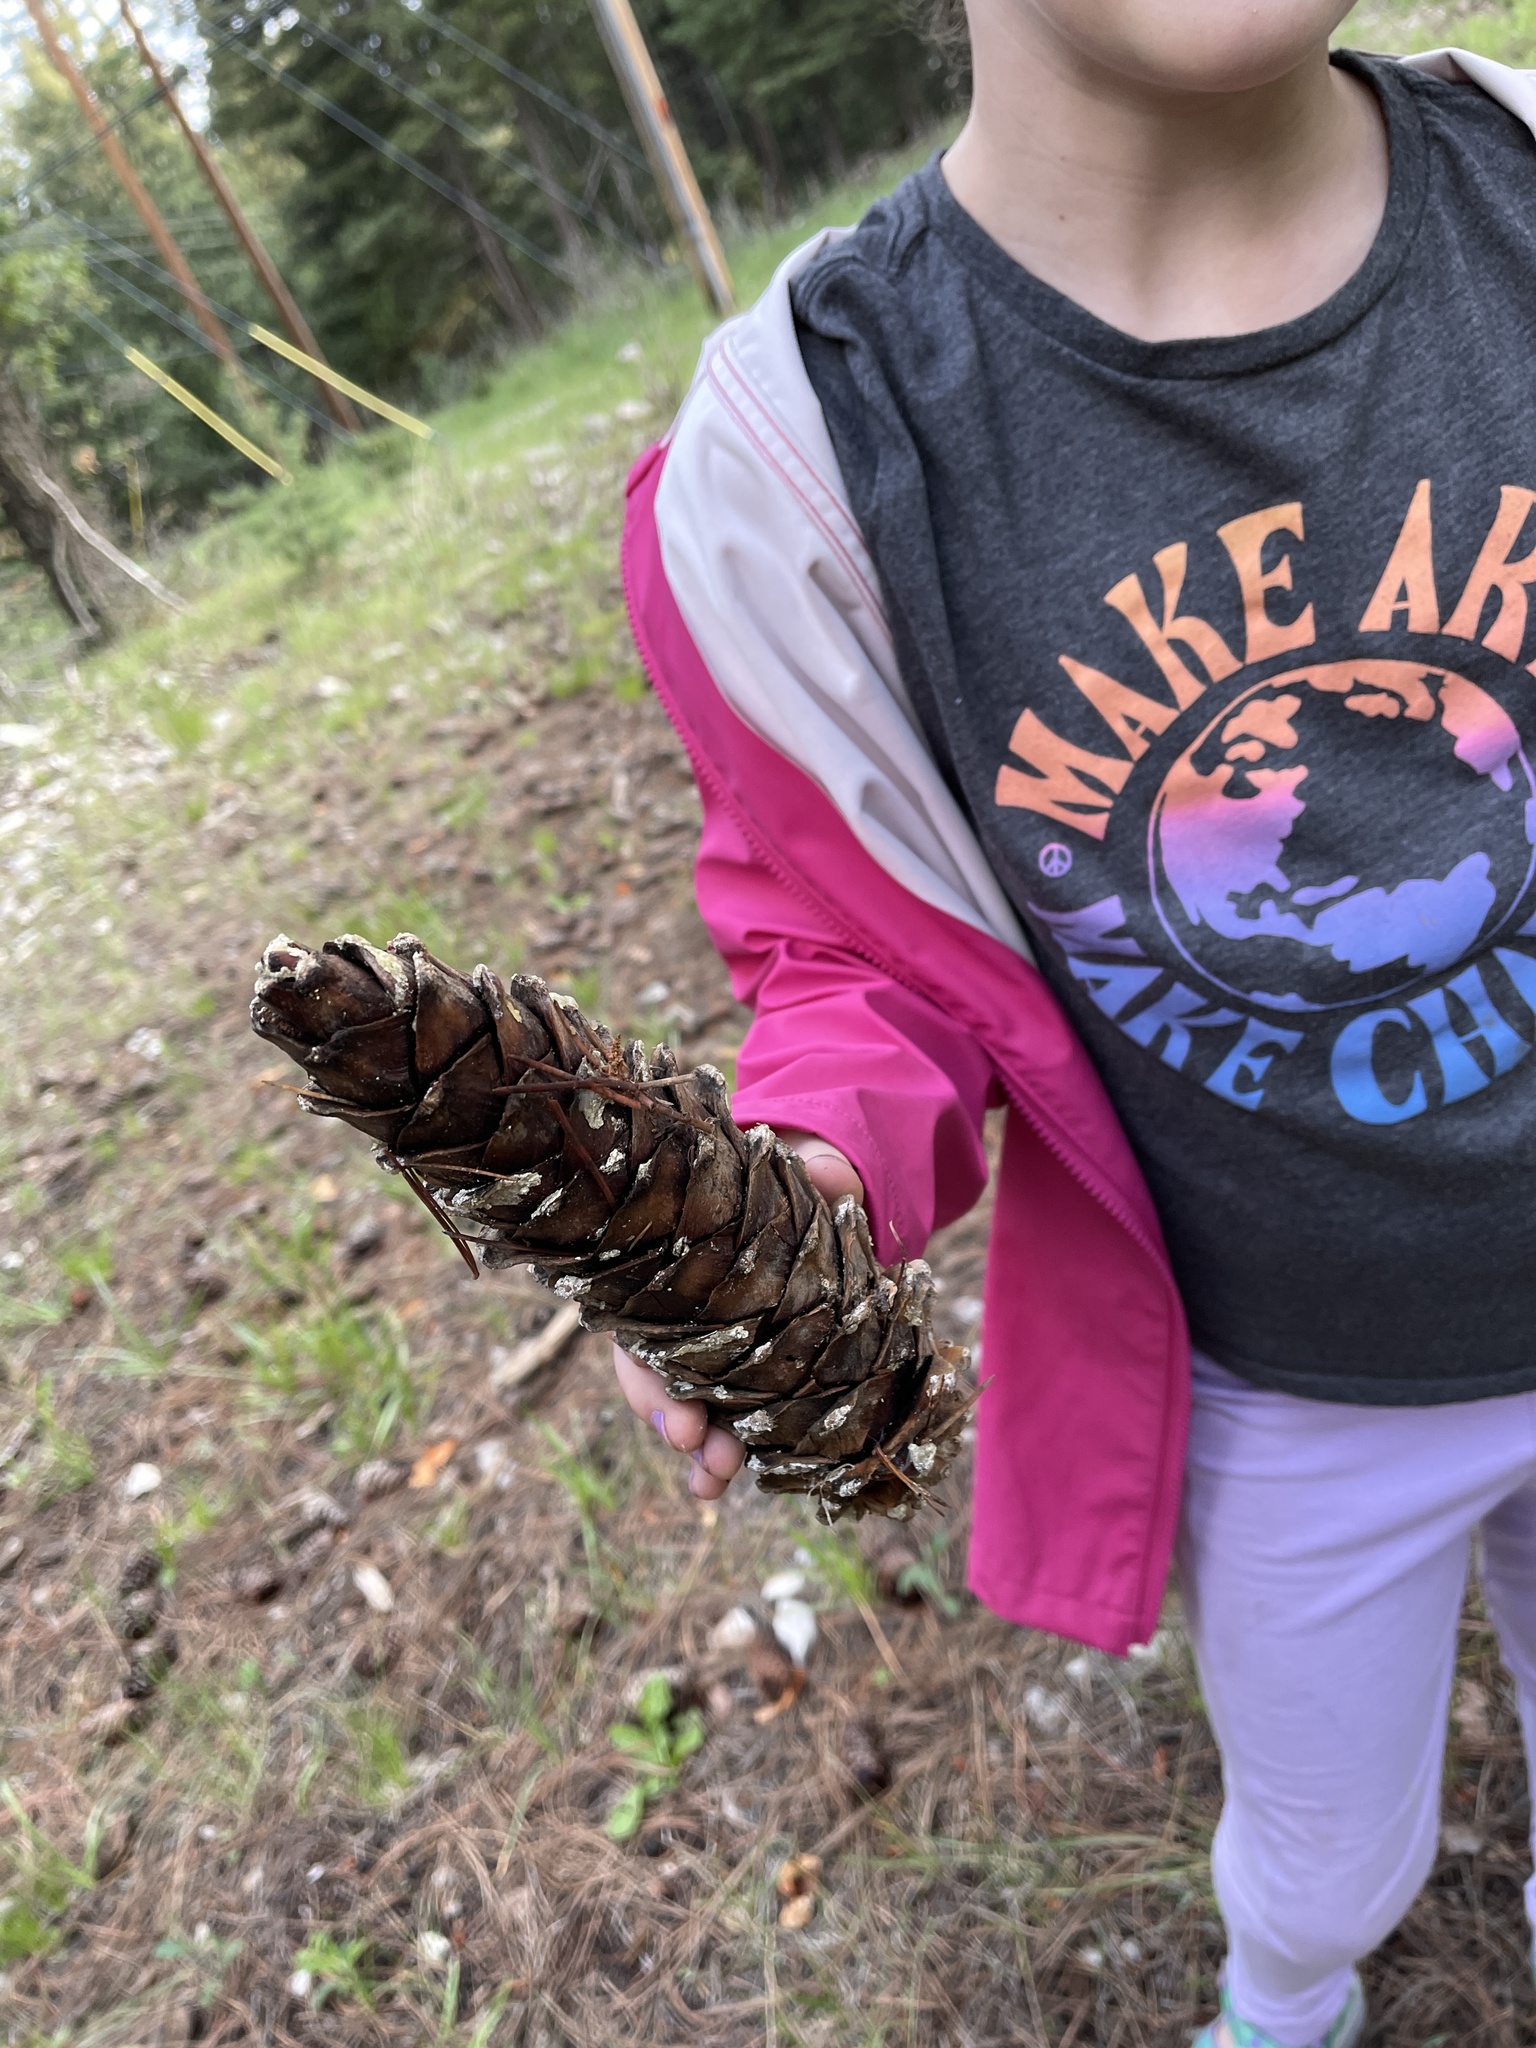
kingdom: Plantae
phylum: Tracheophyta
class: Pinopsida
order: Pinales
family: Pinaceae
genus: Pinus
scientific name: Pinus strobiformis
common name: Southwestern white pine
